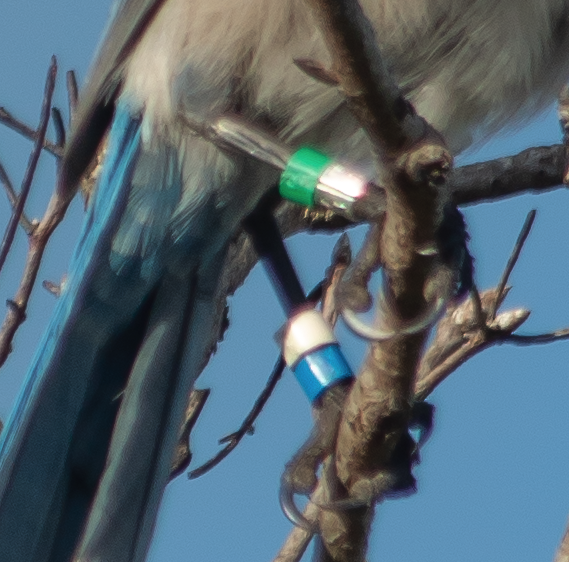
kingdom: Animalia
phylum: Chordata
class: Aves
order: Passeriformes
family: Corvidae
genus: Aphelocoma
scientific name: Aphelocoma coerulescens
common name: Florida scrub jay
